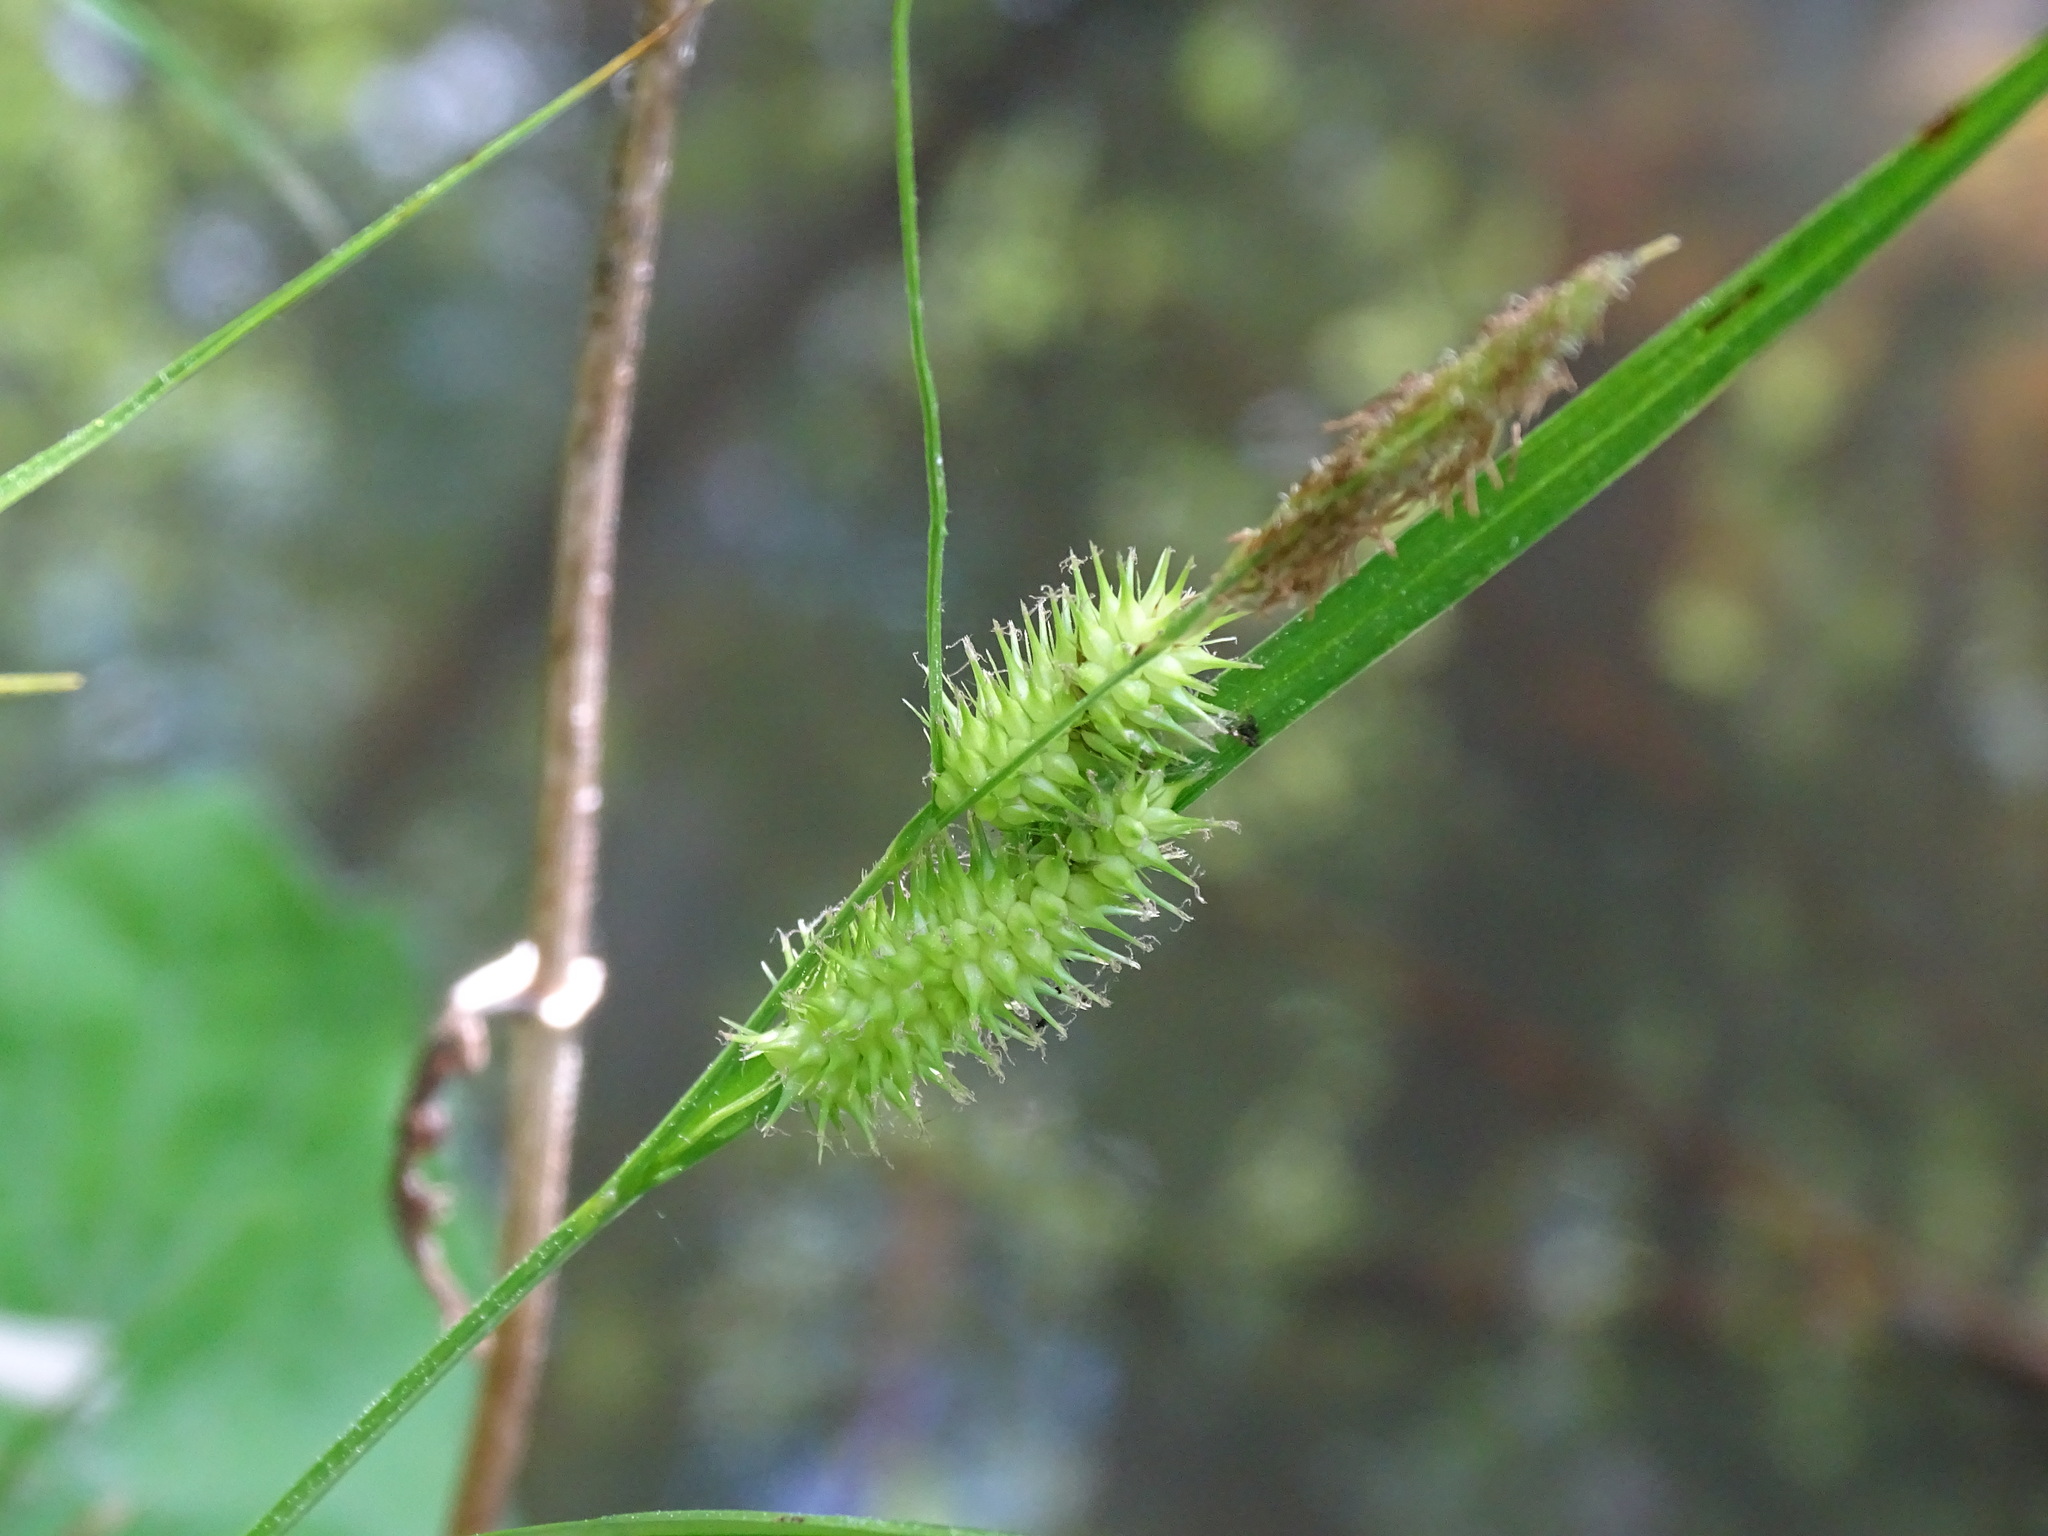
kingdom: Plantae
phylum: Tracheophyta
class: Liliopsida
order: Poales
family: Cyperaceae
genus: Carex
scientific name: Carex hystericina
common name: Bottlebrush sedge
